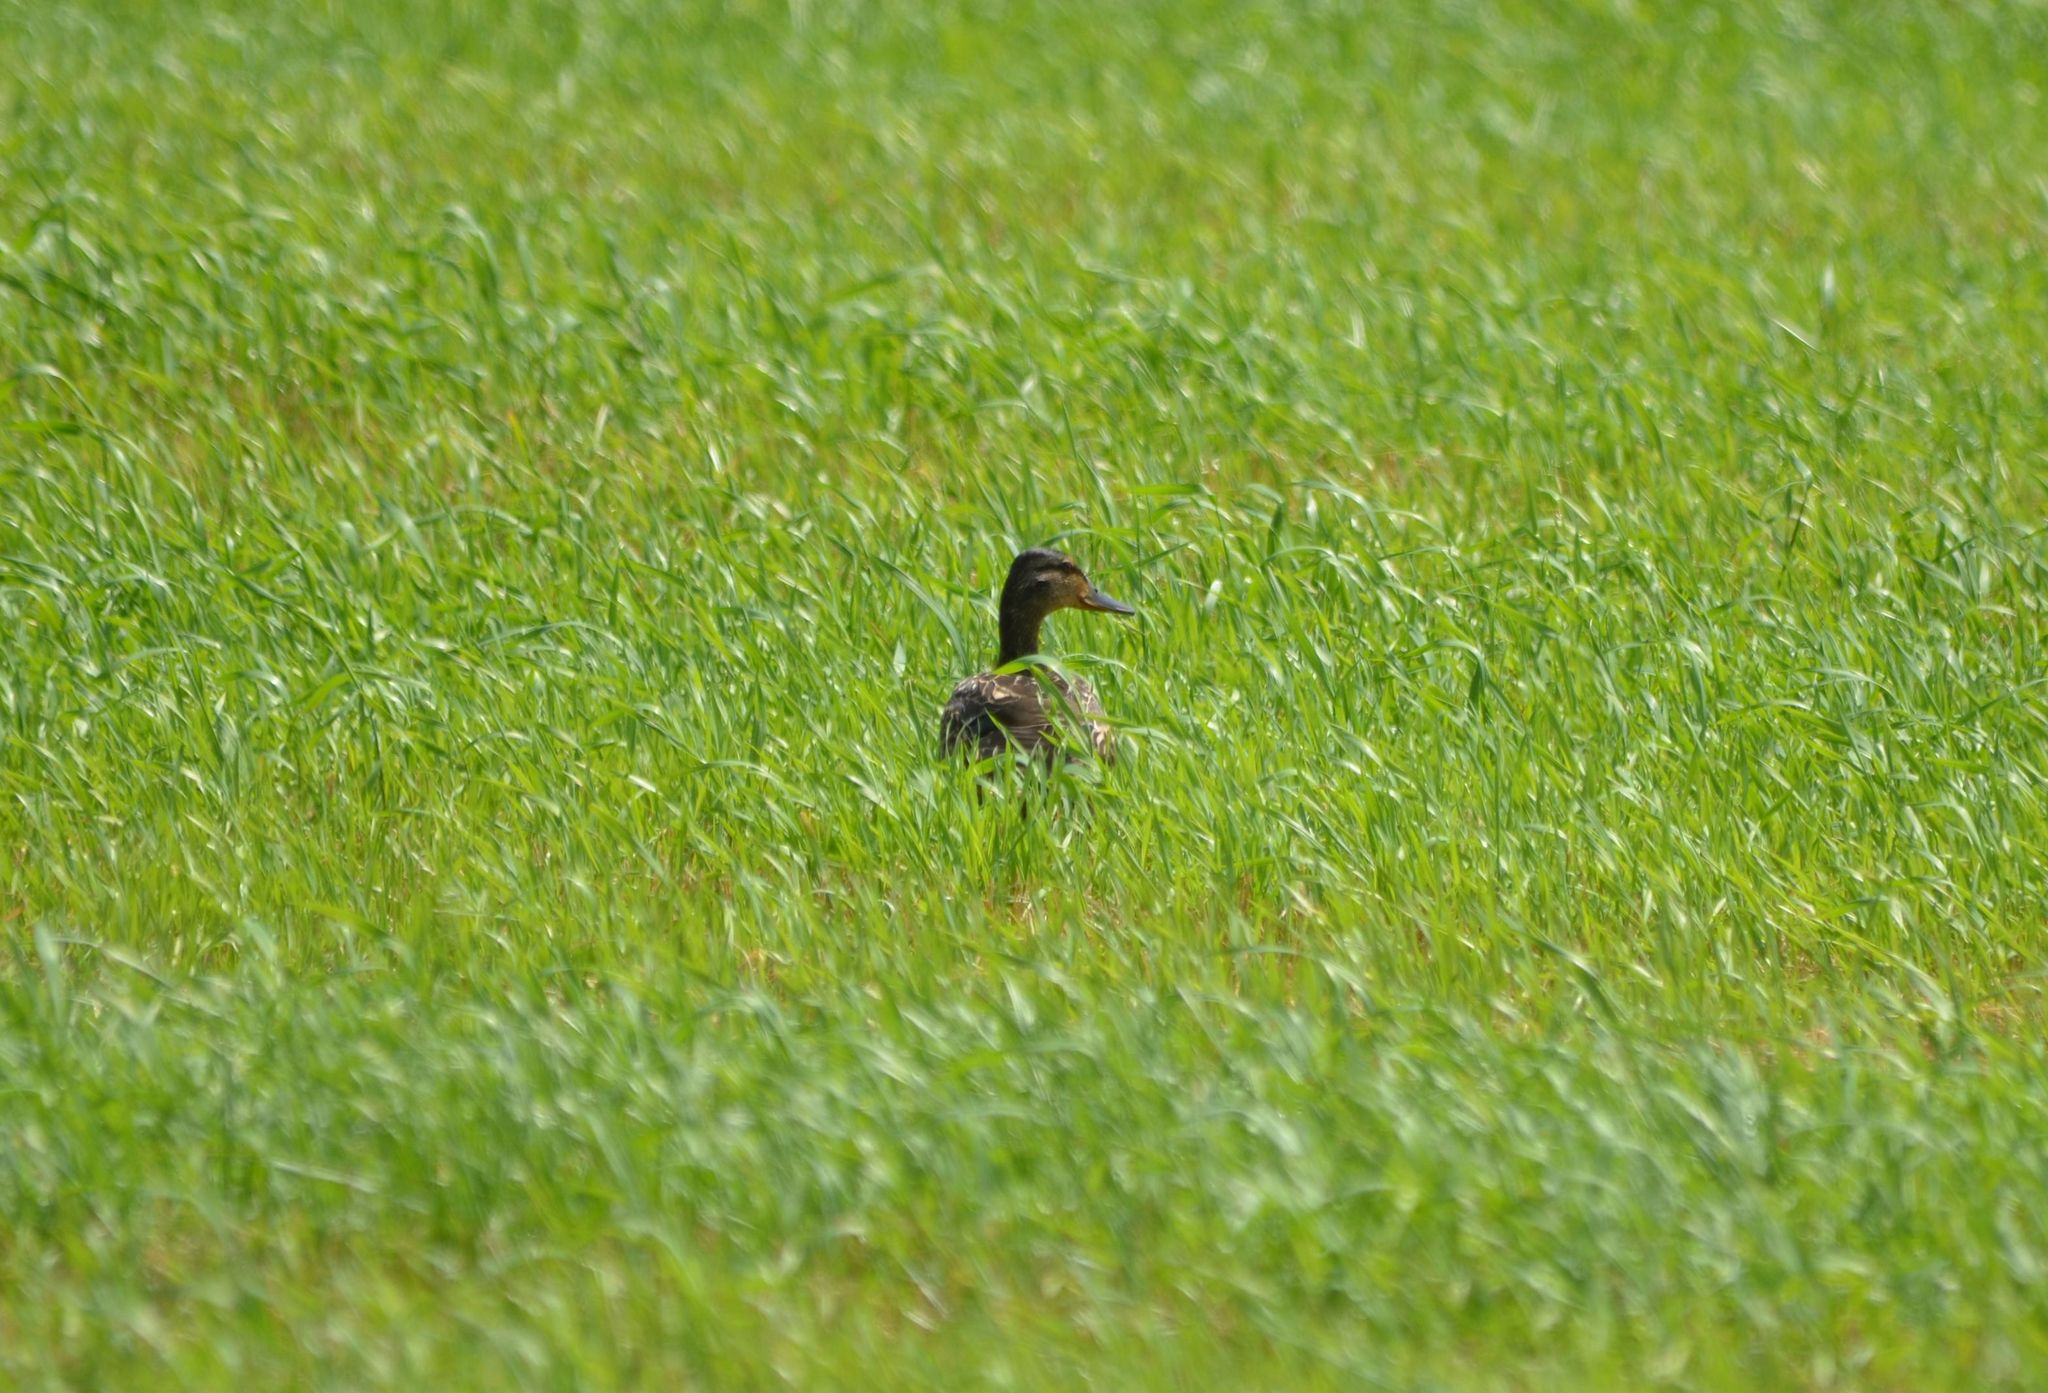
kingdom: Animalia
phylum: Chordata
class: Aves
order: Anseriformes
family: Anatidae
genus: Anas
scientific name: Anas platyrhynchos
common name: Mallard
